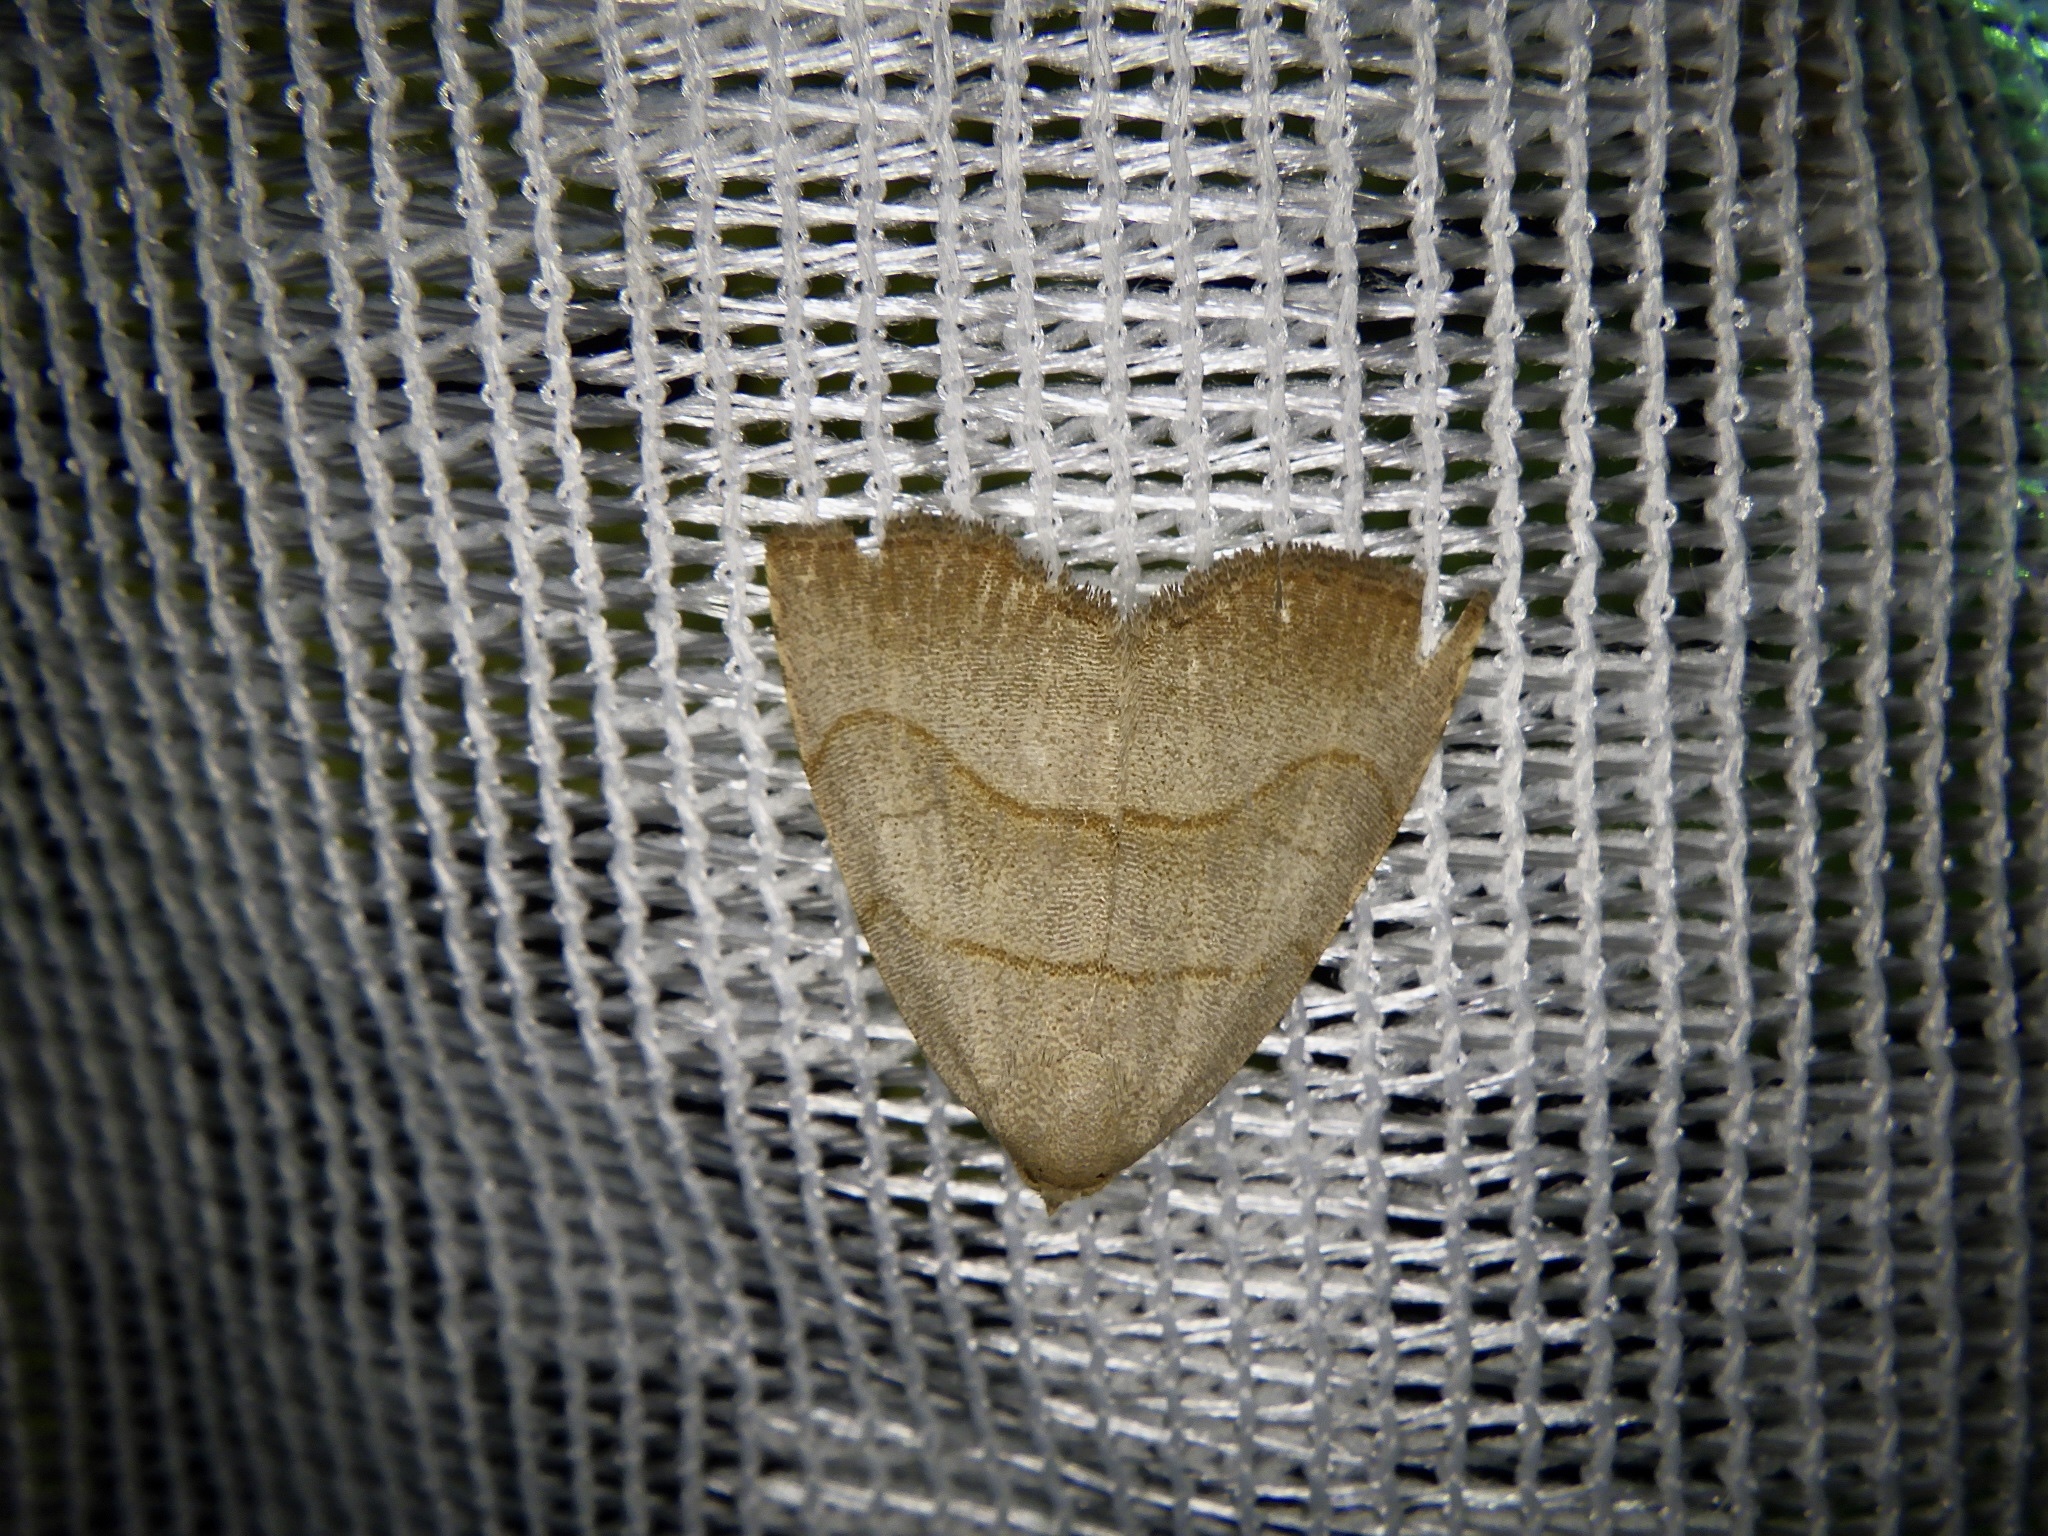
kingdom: Animalia
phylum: Arthropoda
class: Insecta
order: Lepidoptera
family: Erebidae
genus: Leiostola
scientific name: Leiostola mollis
